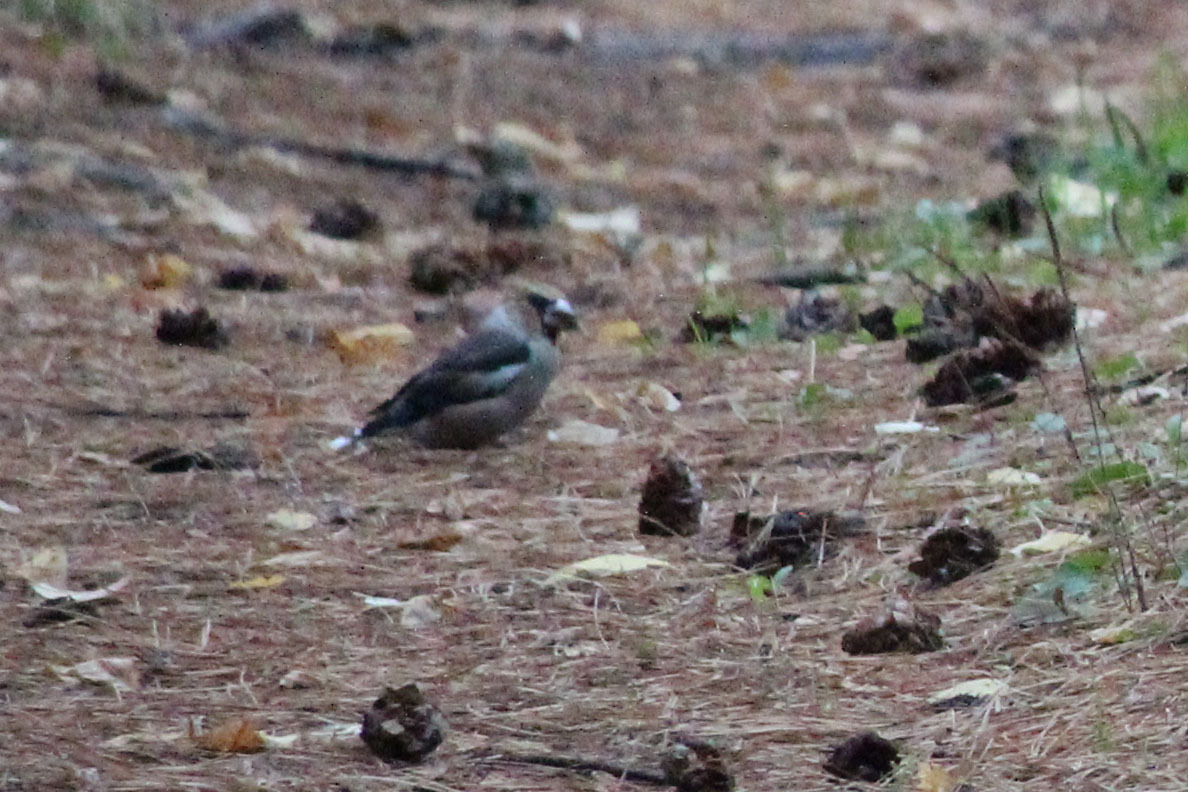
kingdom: Animalia
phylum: Chordata
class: Aves
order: Passeriformes
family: Fringillidae
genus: Coccothraustes
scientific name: Coccothraustes coccothraustes
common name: Hawfinch
